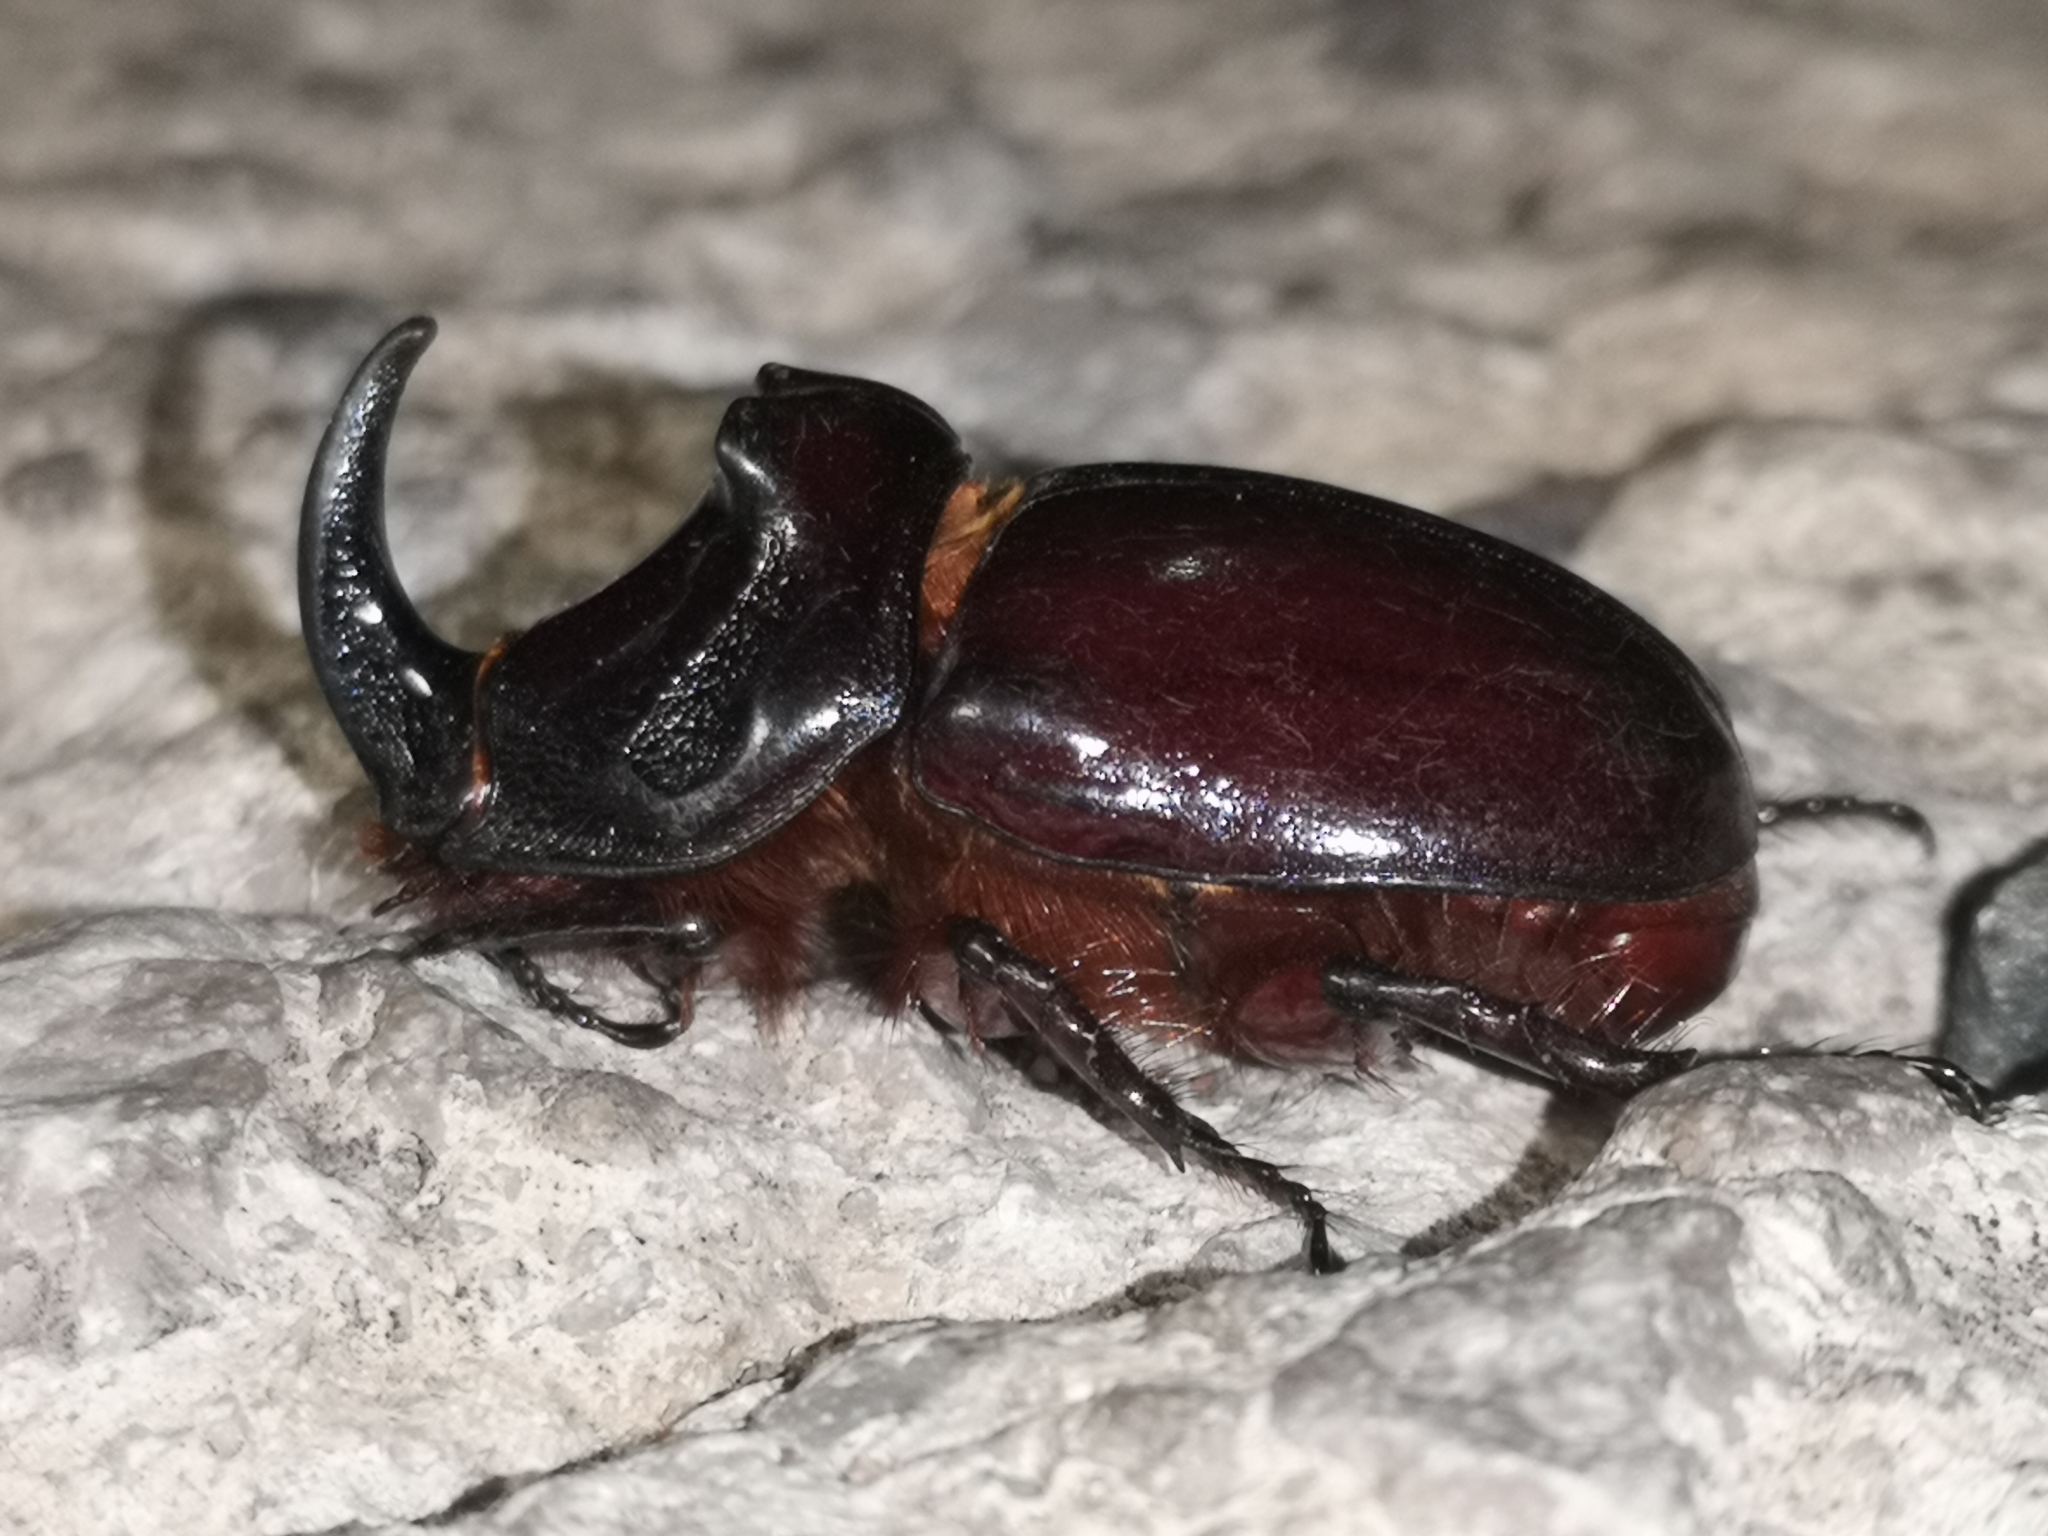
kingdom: Animalia
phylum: Arthropoda
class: Insecta
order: Coleoptera
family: Scarabaeidae
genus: Oryctes
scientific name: Oryctes nasicornis
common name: European rhinoceros beetle
